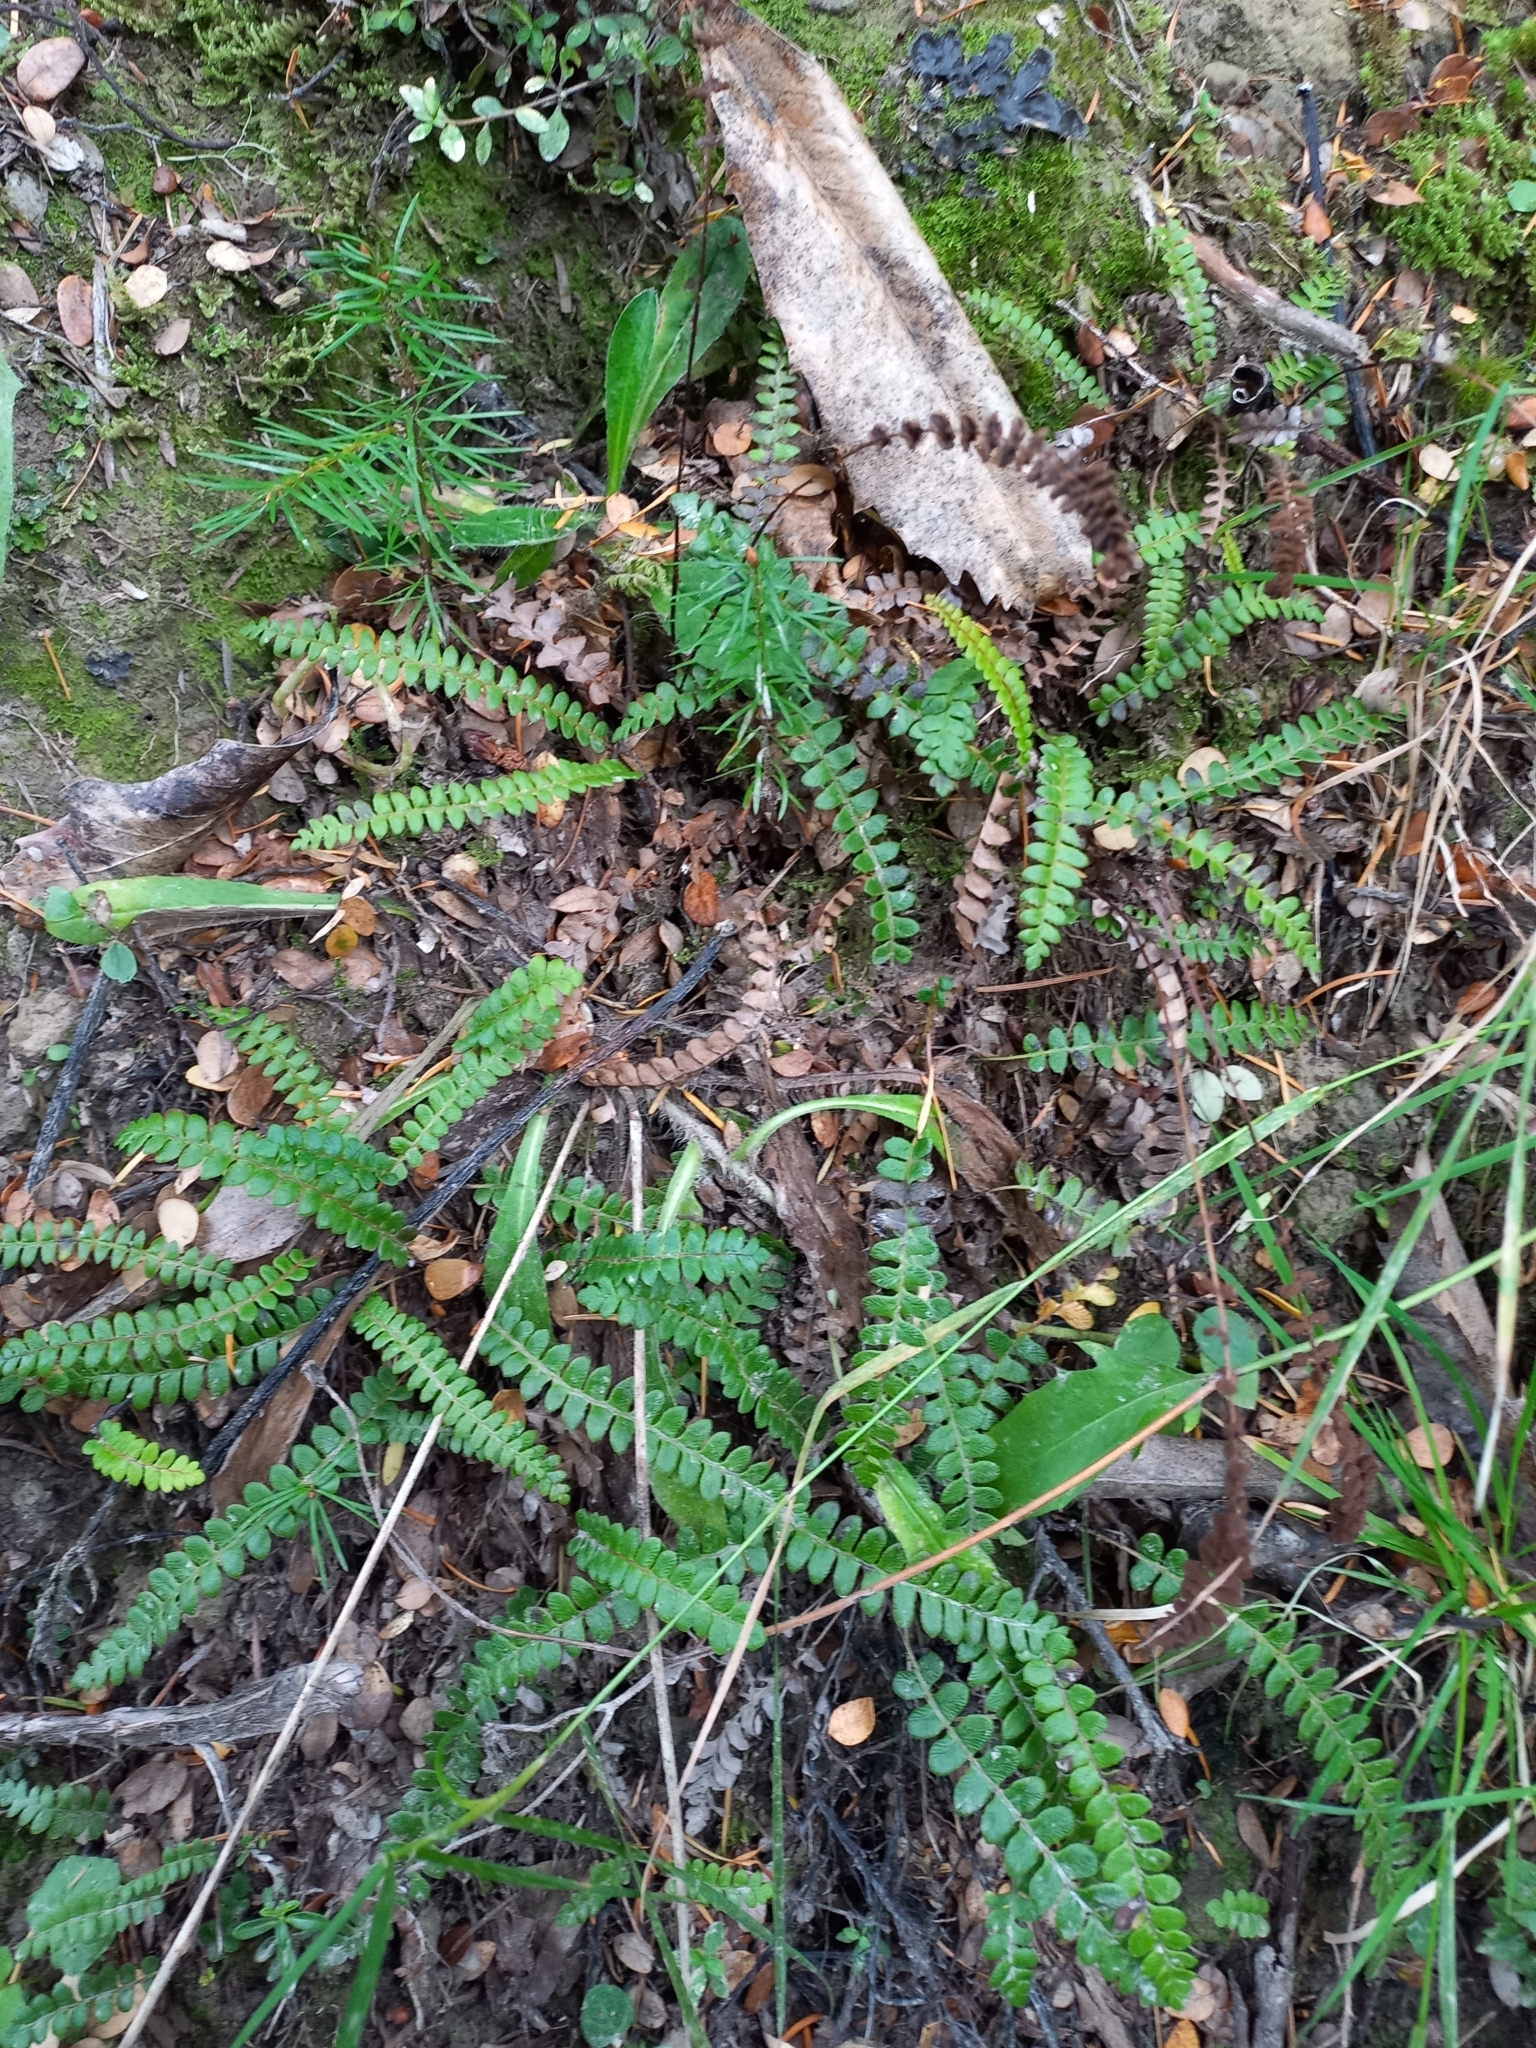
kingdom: Plantae
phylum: Tracheophyta
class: Polypodiopsida
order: Polypodiales
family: Blechnaceae
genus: Austroblechnum
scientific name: Austroblechnum penna-marina
